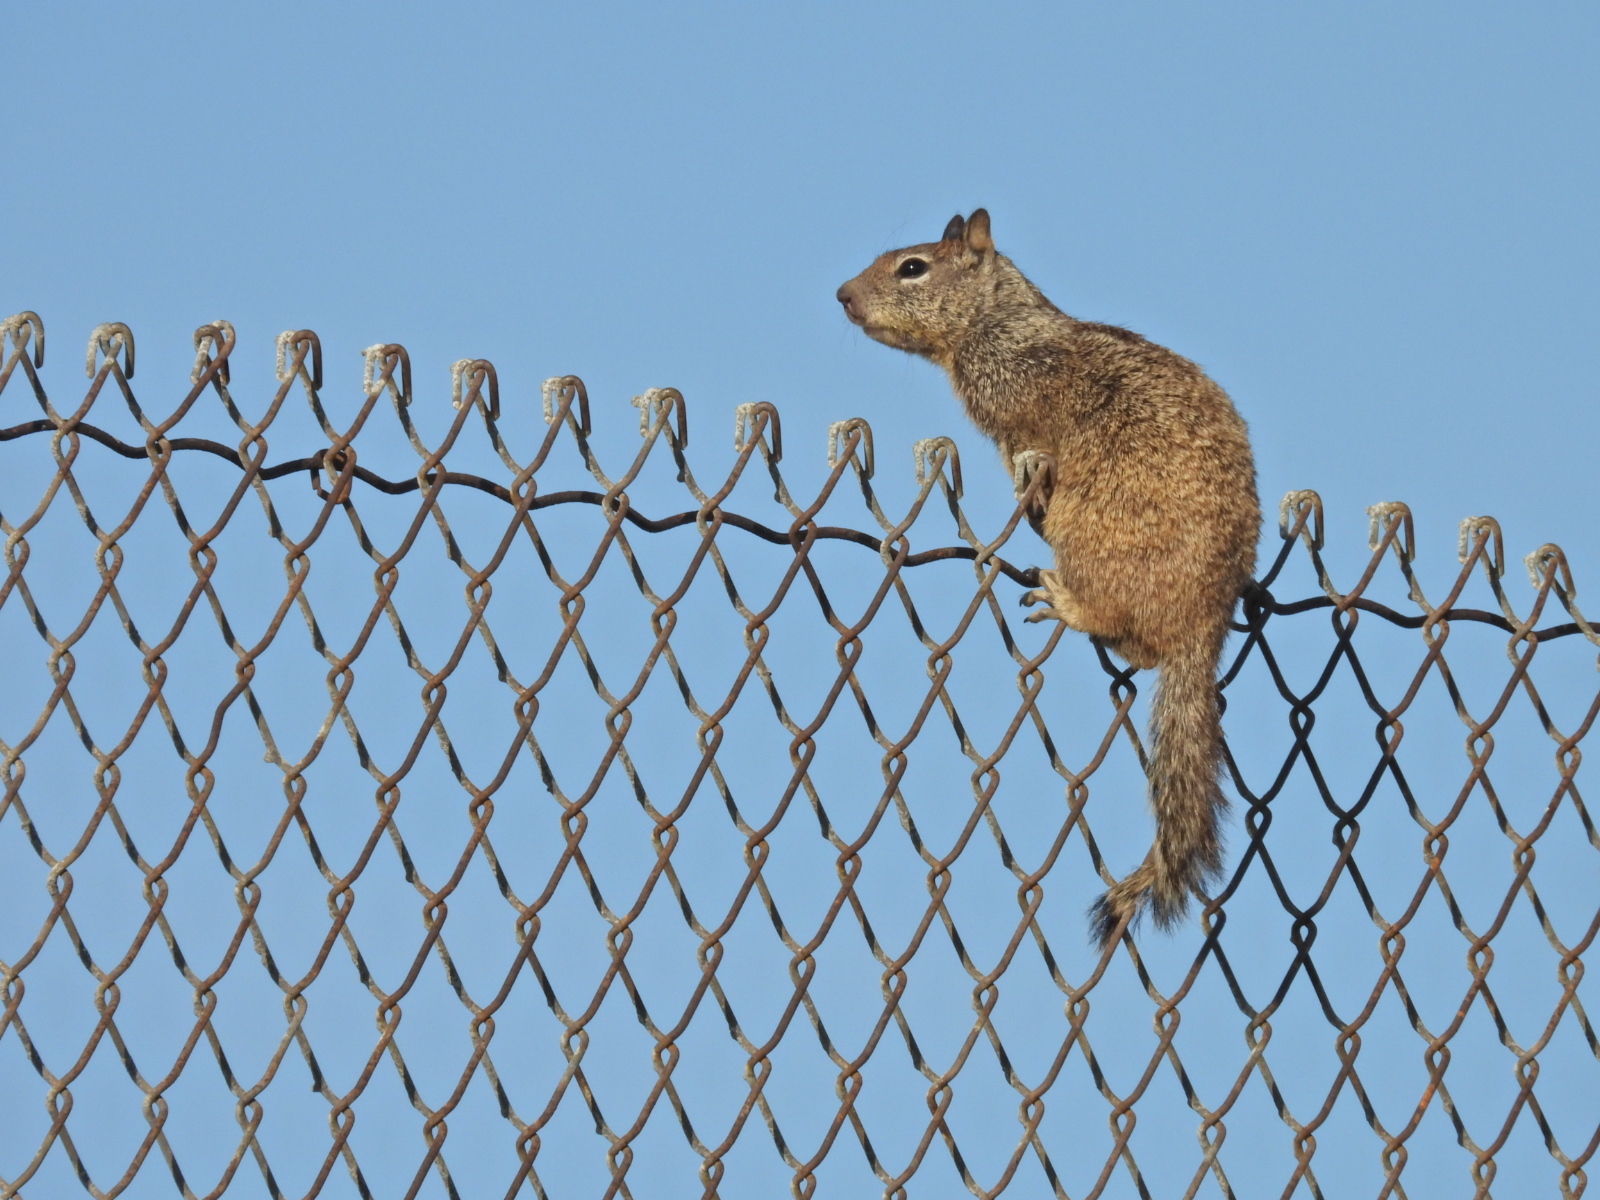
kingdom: Animalia
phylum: Chordata
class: Mammalia
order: Rodentia
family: Sciuridae
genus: Otospermophilus
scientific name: Otospermophilus beecheyi
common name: California ground squirrel
